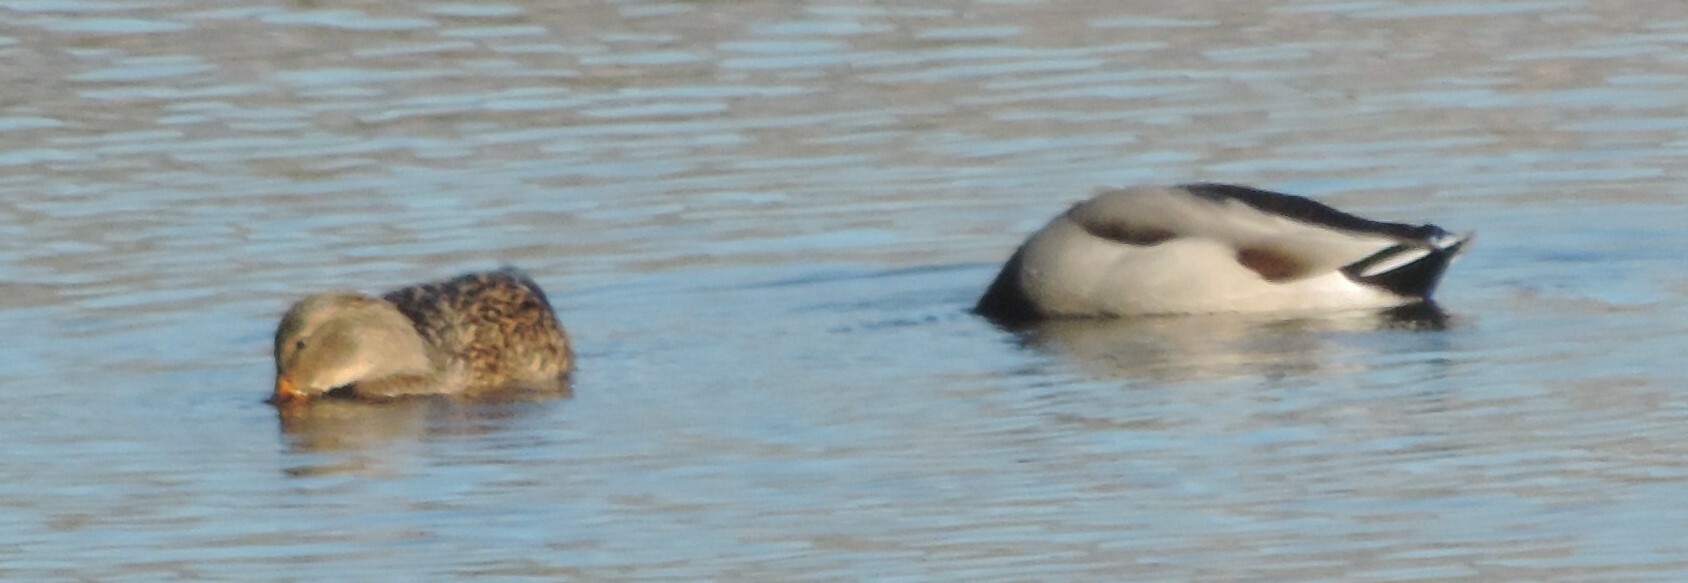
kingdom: Animalia
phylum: Chordata
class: Aves
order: Anseriformes
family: Anatidae
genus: Anas
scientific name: Anas platyrhynchos
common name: Mallard
